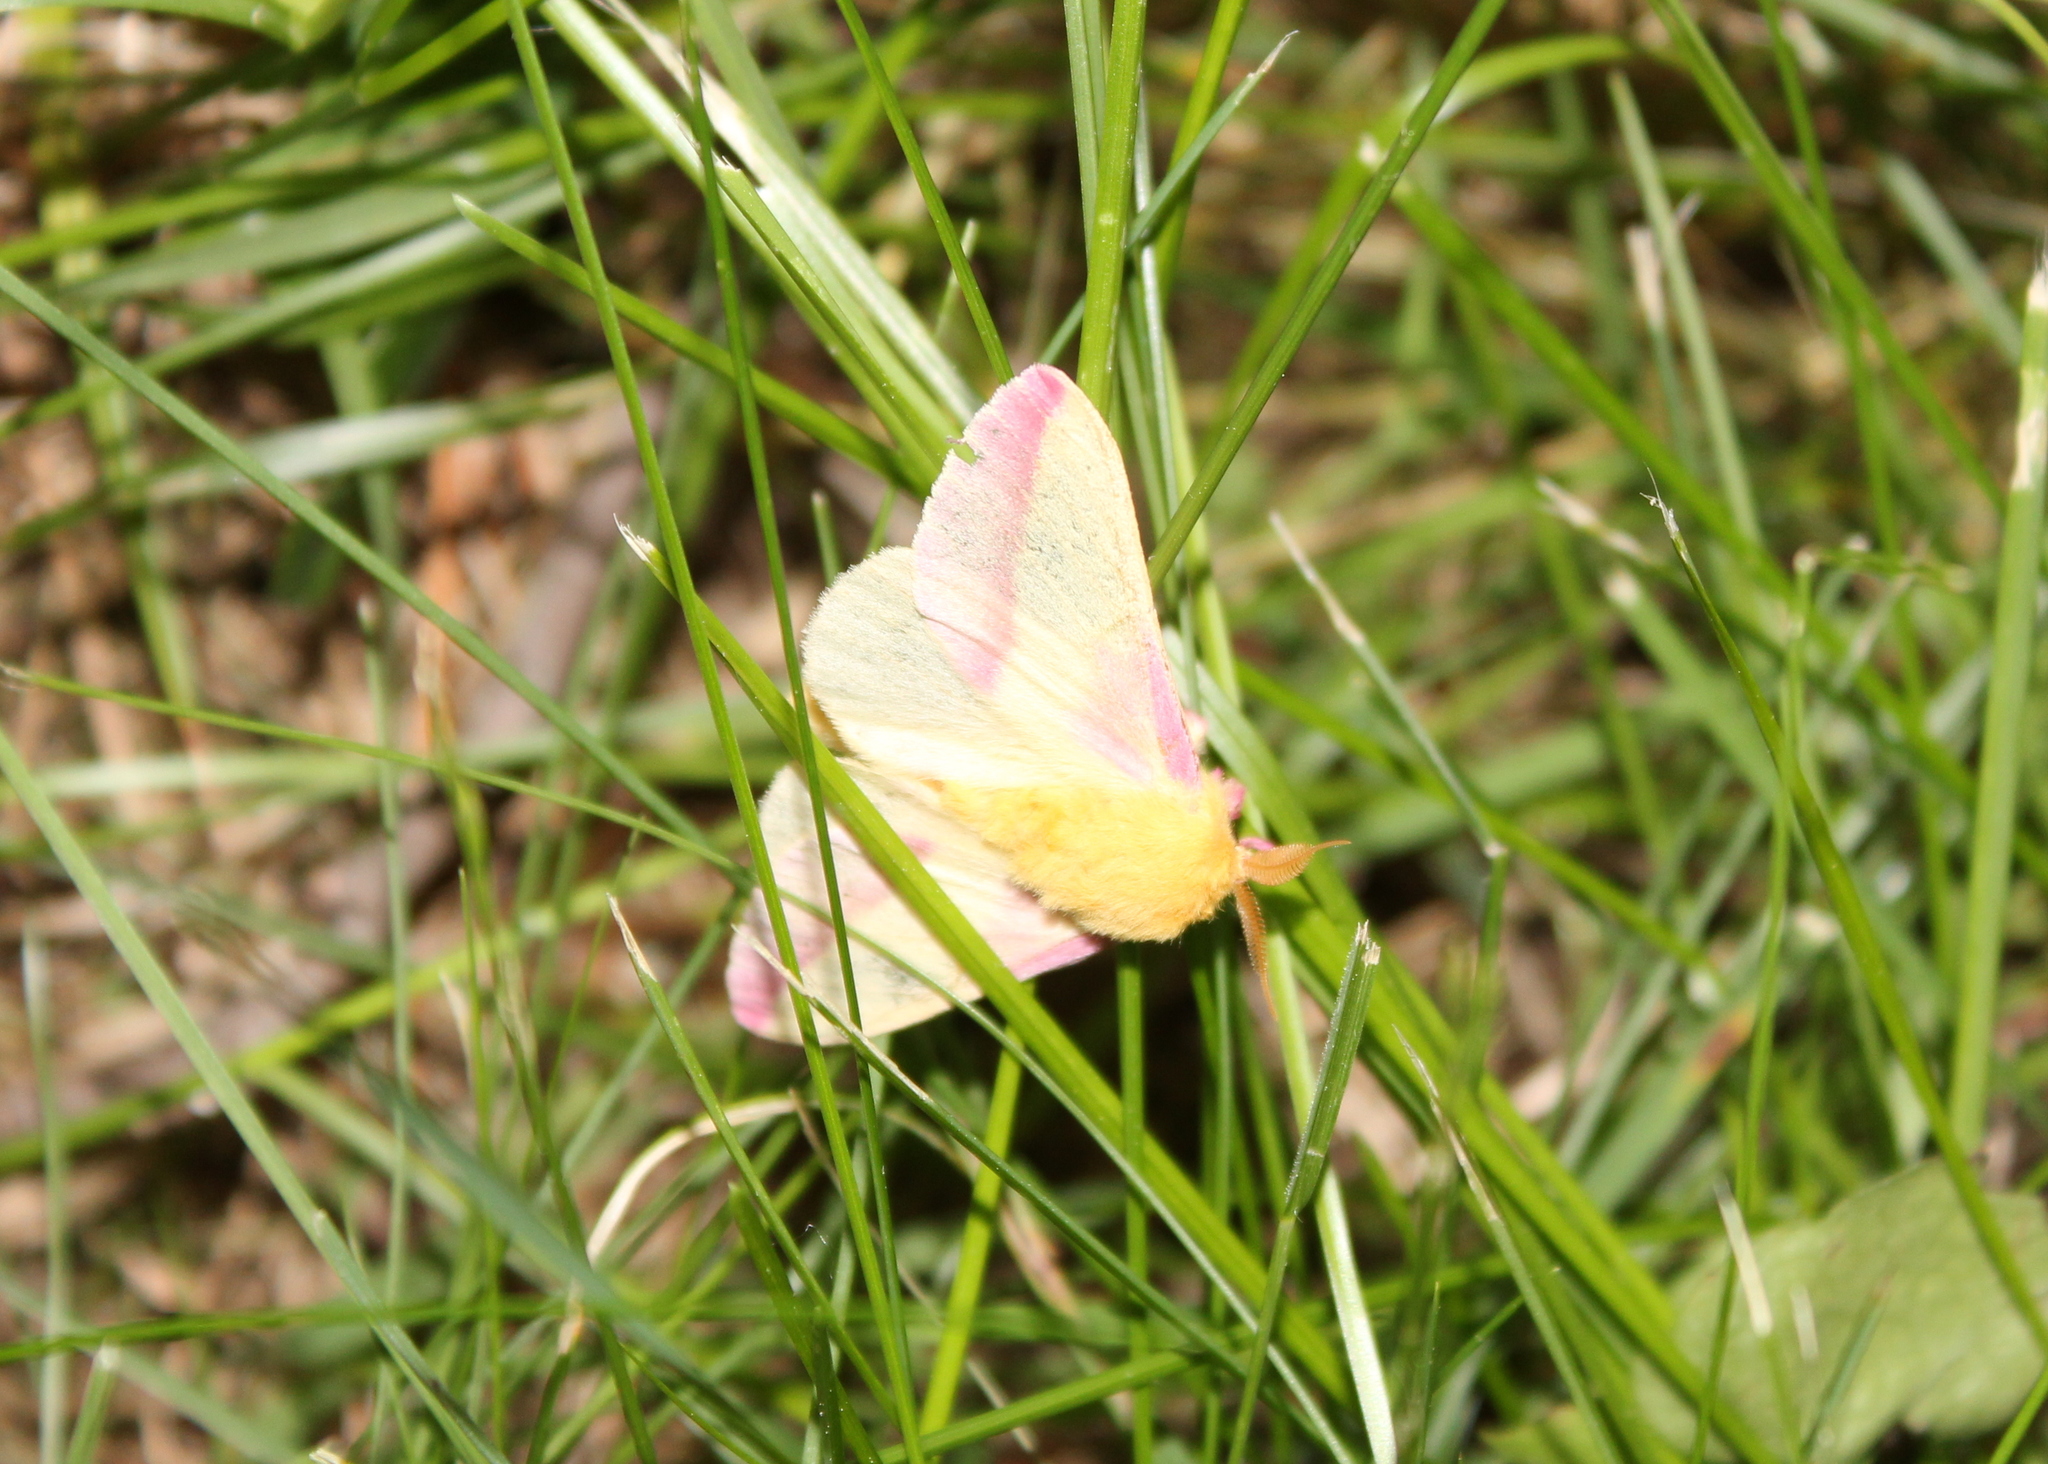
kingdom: Animalia
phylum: Arthropoda
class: Insecta
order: Lepidoptera
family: Saturniidae
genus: Dryocampa
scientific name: Dryocampa rubicunda
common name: Rosy maple moth
